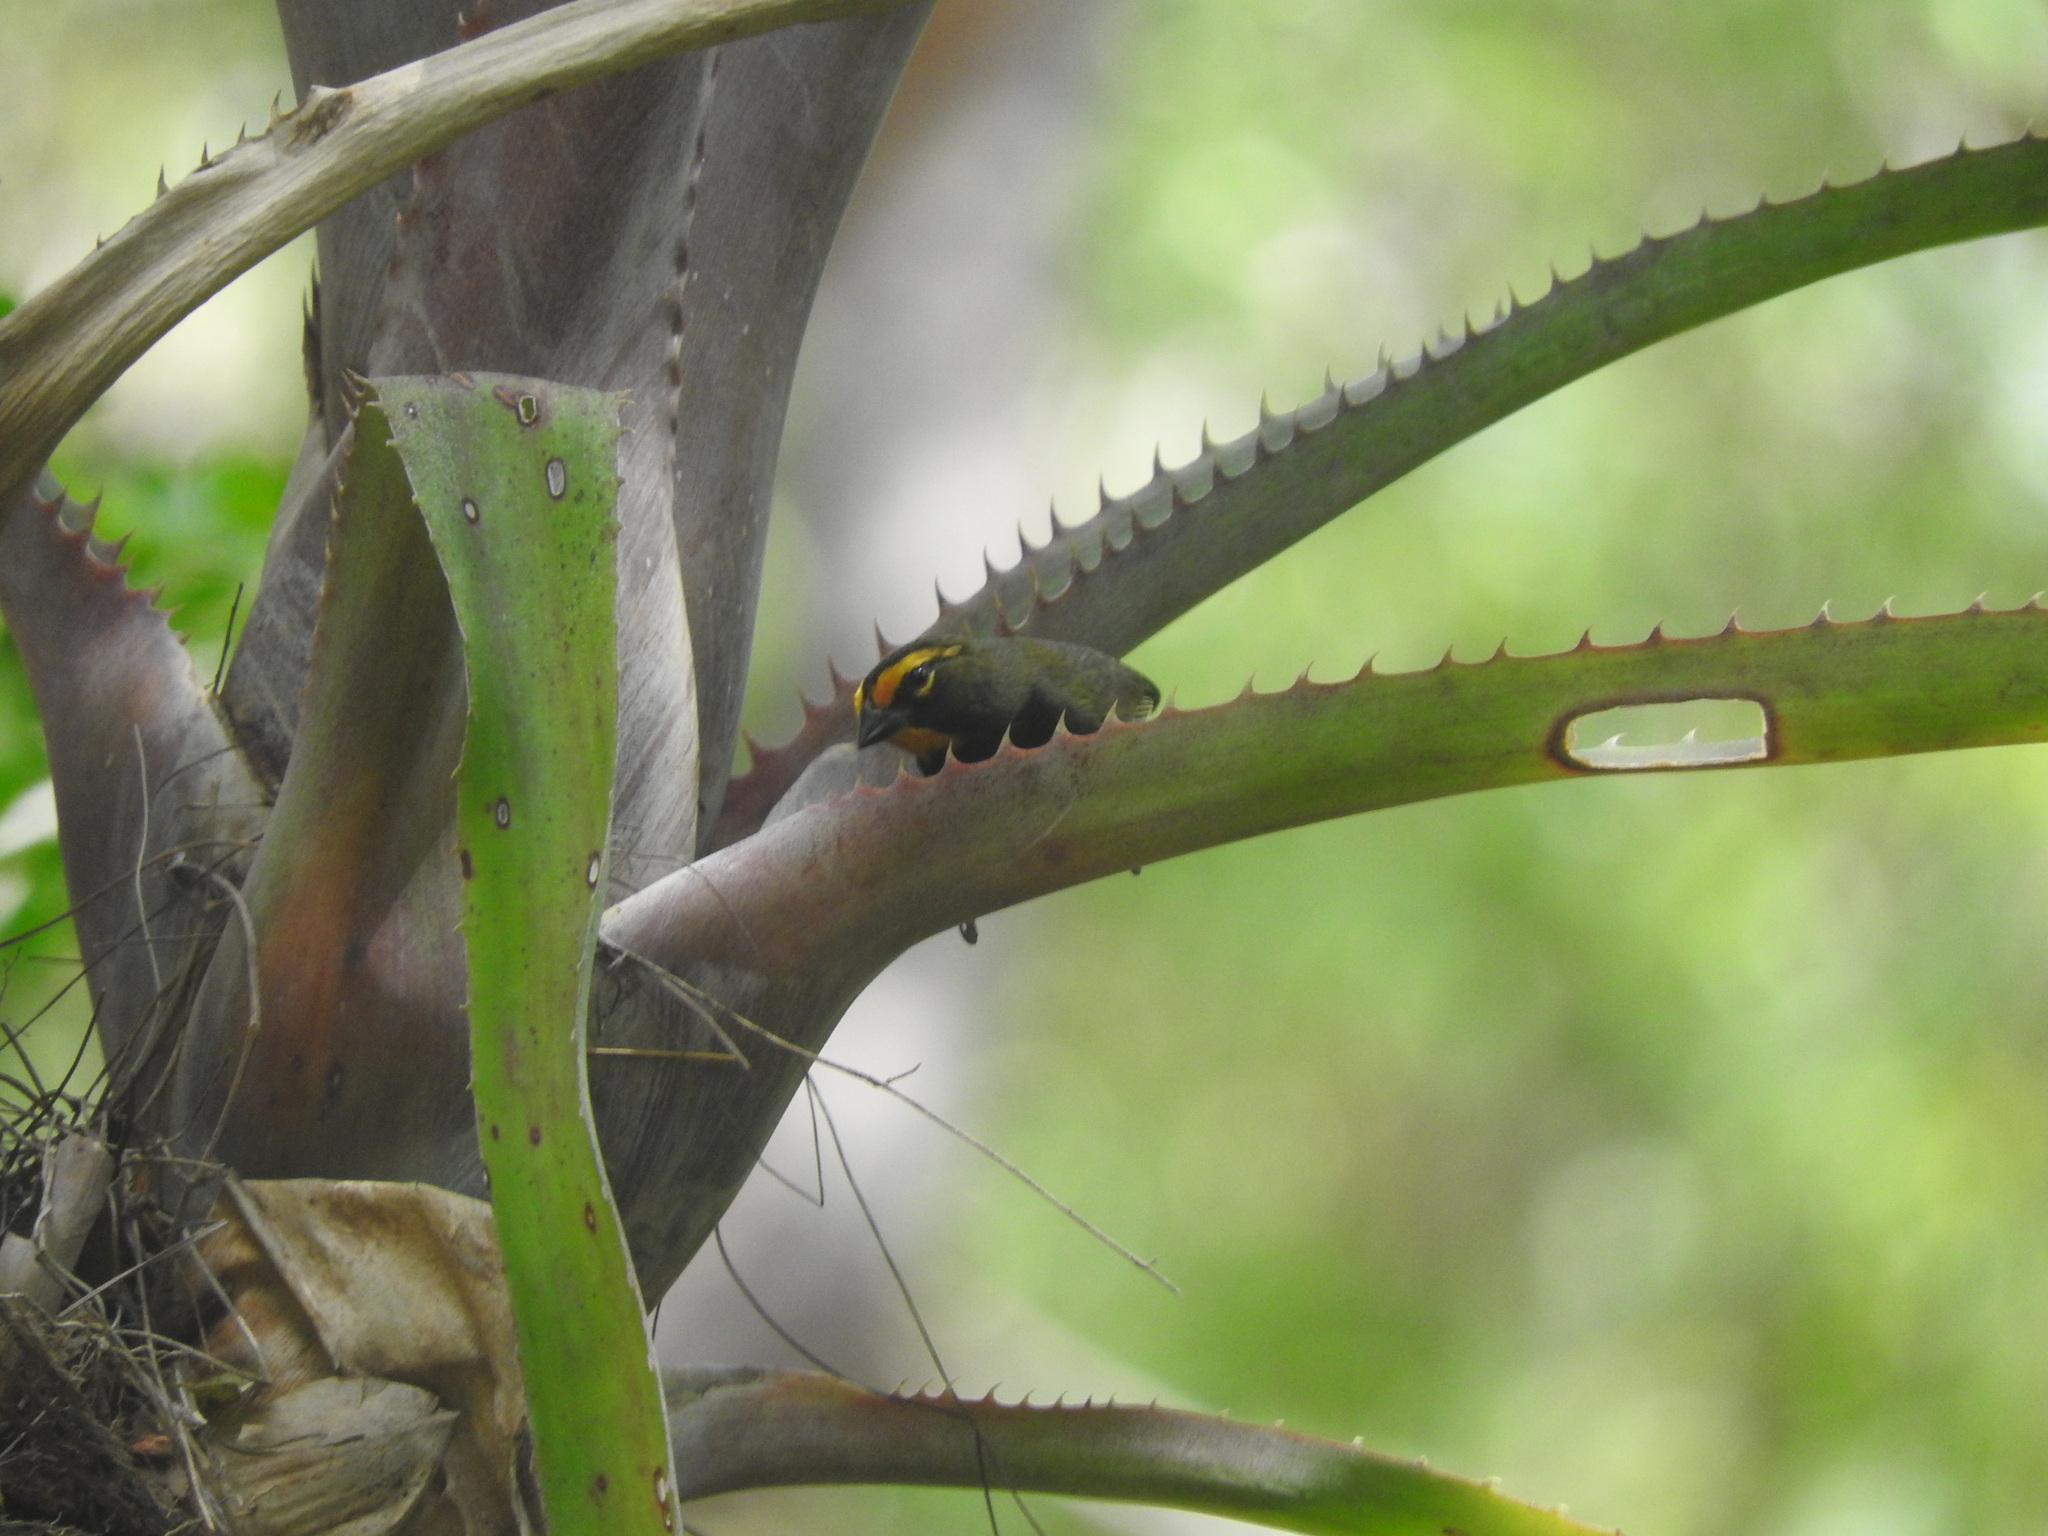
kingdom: Animalia
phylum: Chordata
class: Aves
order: Passeriformes
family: Thraupidae
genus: Tiaris
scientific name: Tiaris olivaceus
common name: Yellow-faced grassquit
